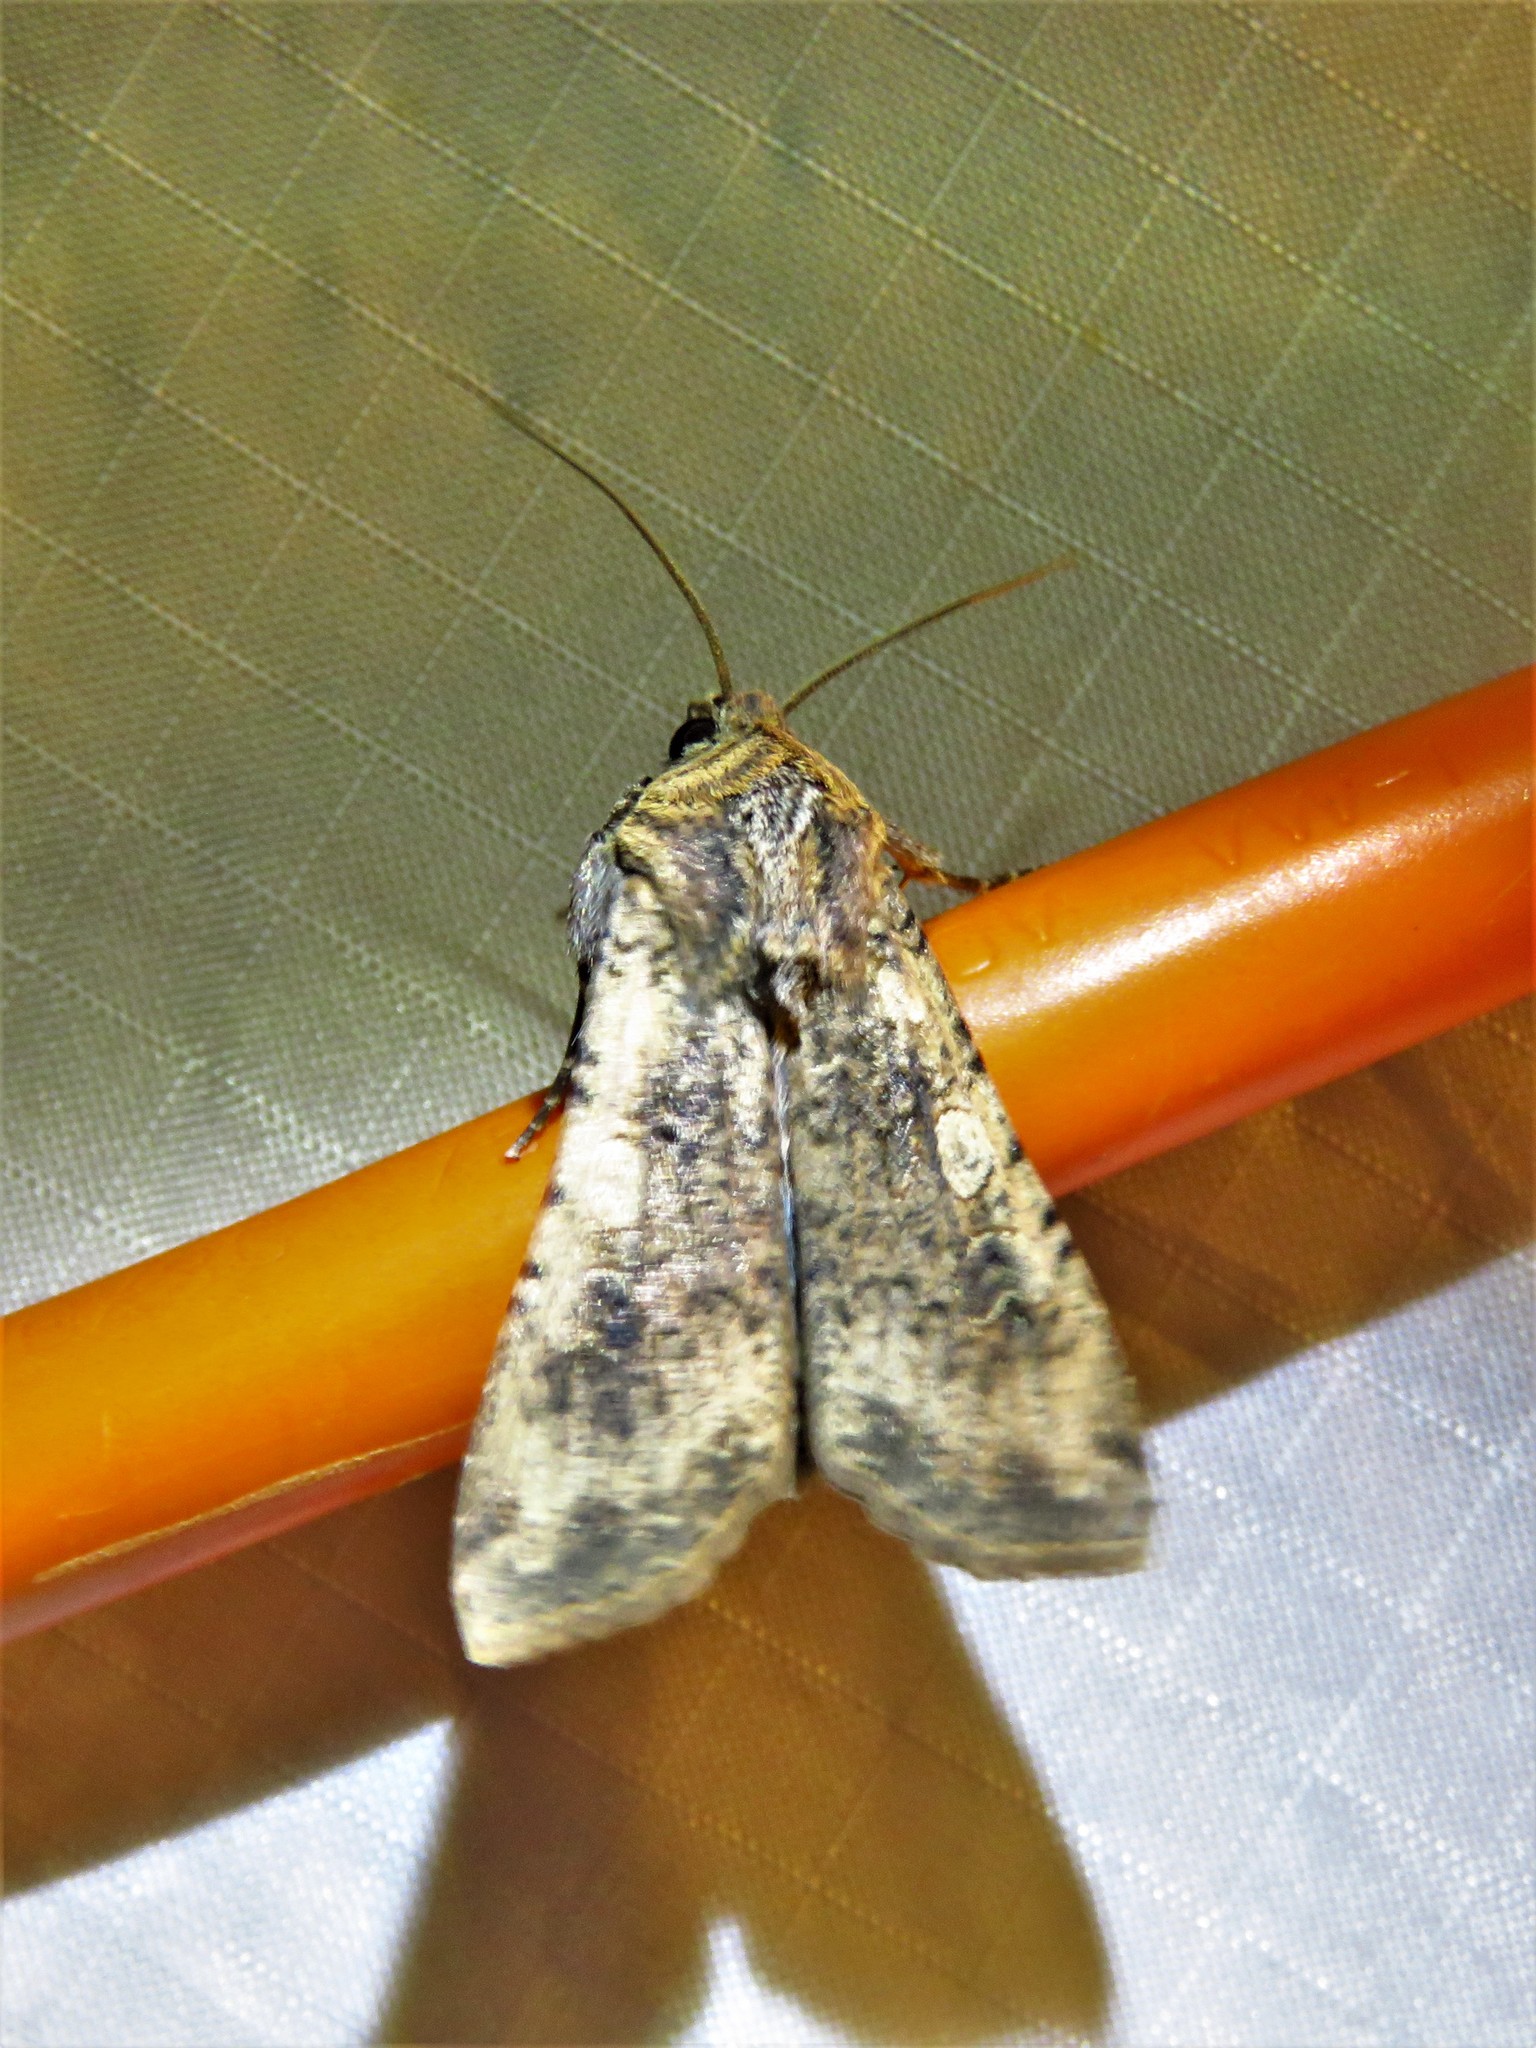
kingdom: Animalia
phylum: Arthropoda
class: Insecta
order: Lepidoptera
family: Noctuidae
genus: Peridroma
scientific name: Peridroma saucia
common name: Pearly underwing
